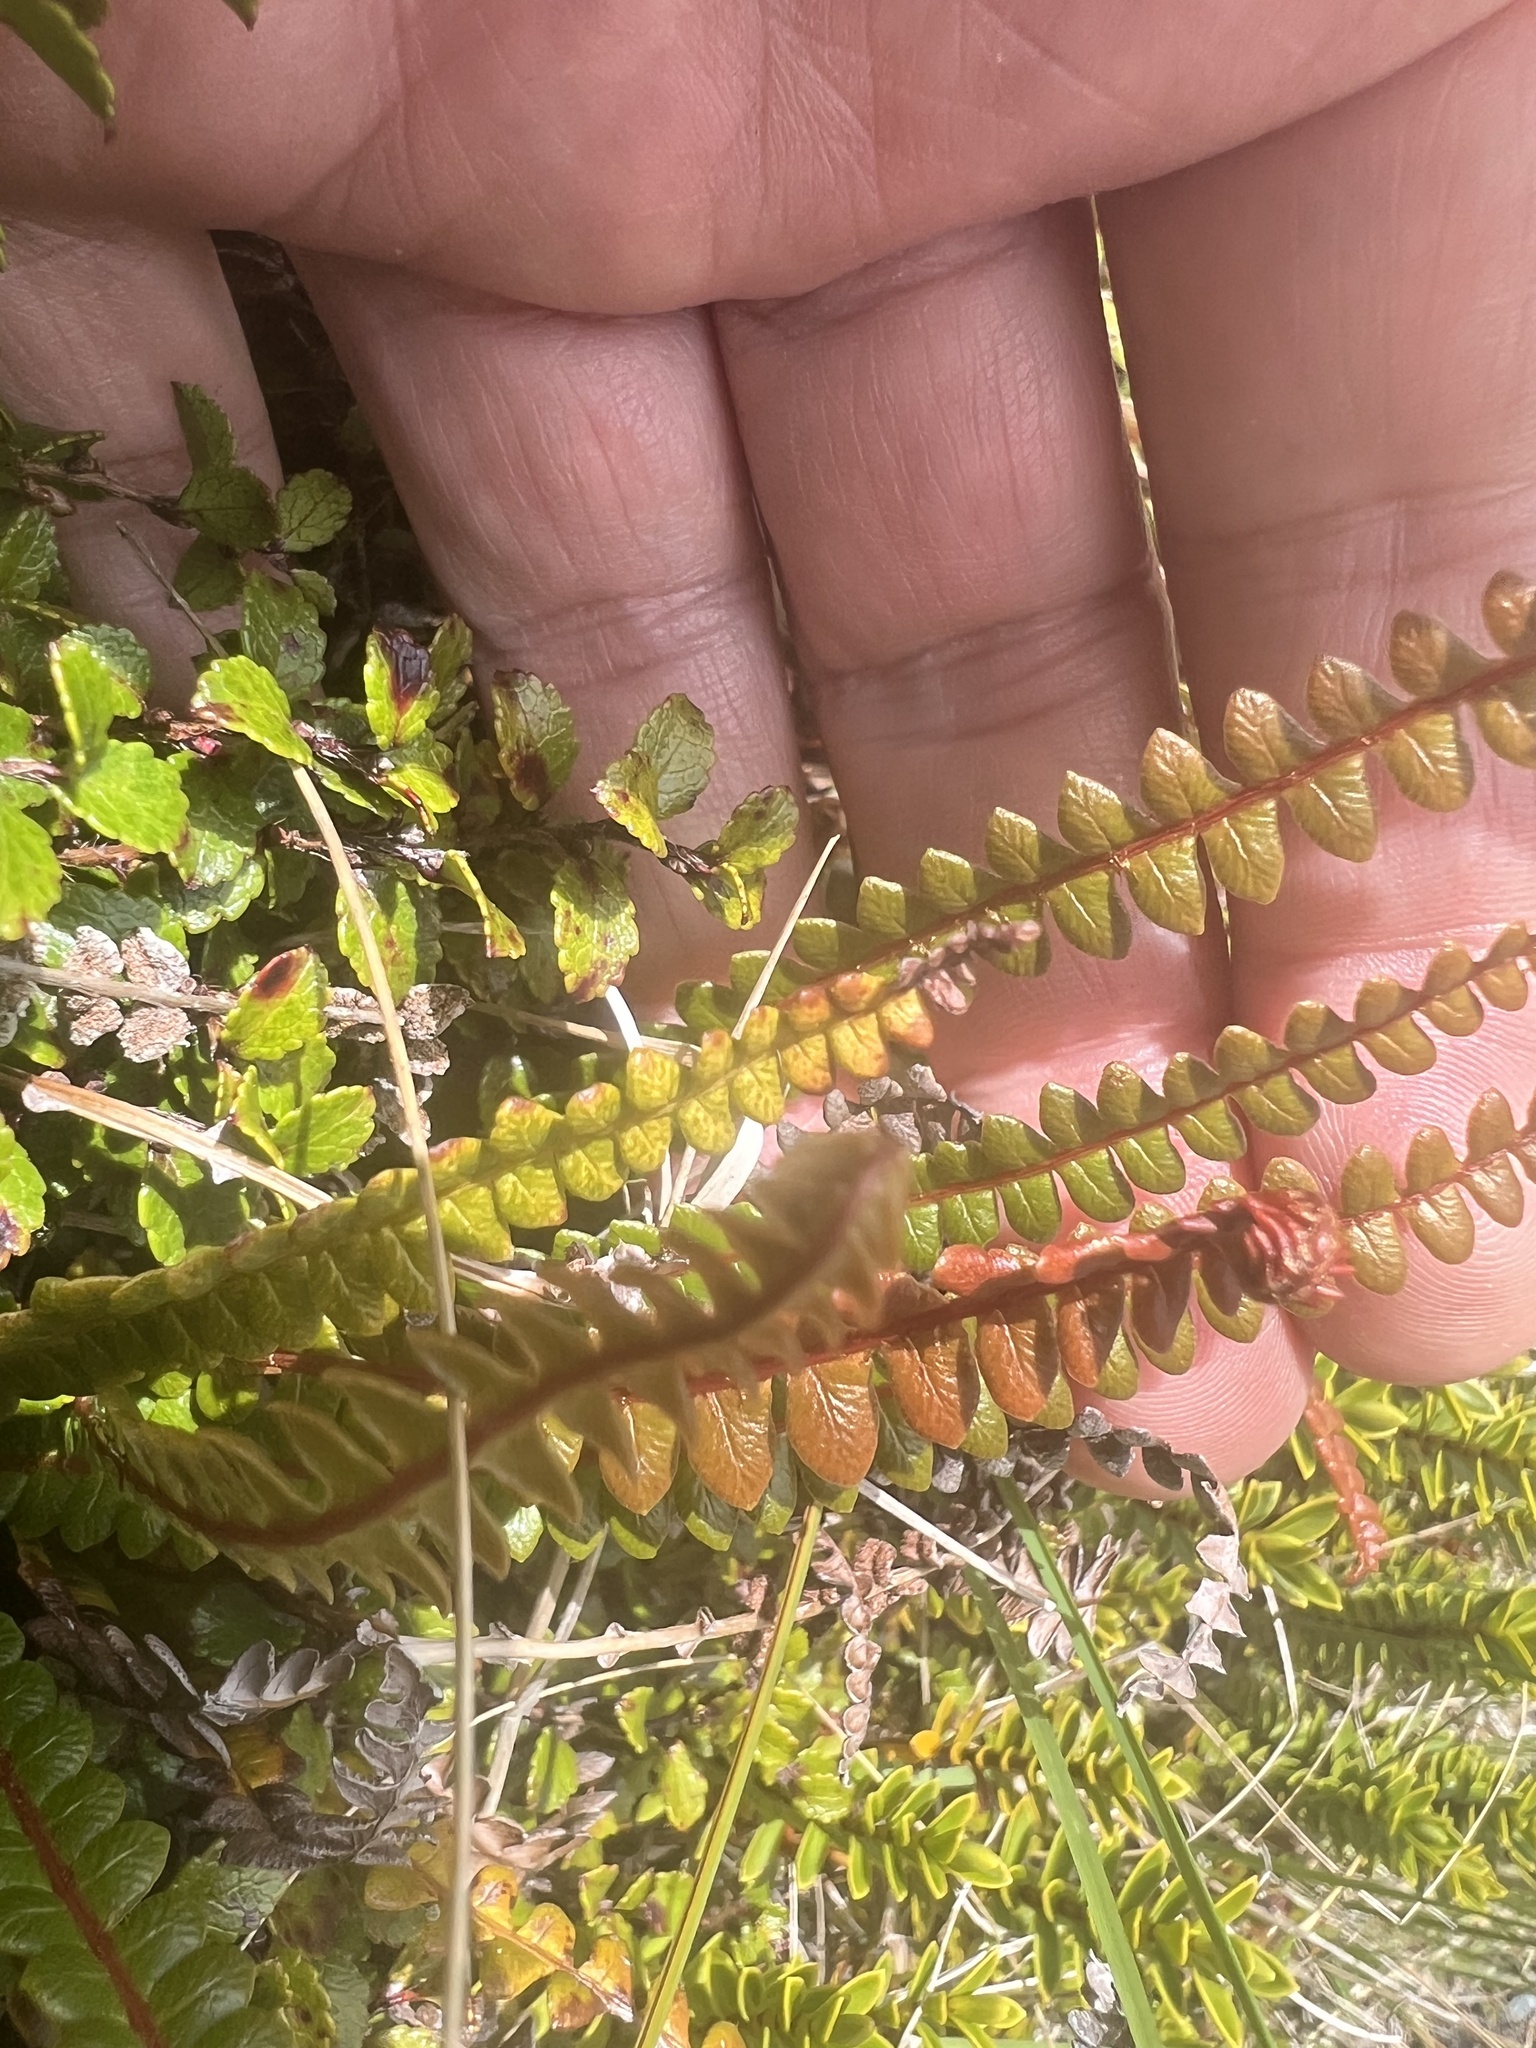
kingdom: Plantae
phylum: Tracheophyta
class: Polypodiopsida
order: Polypodiales
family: Blechnaceae
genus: Austroblechnum
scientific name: Austroblechnum penna-marina
